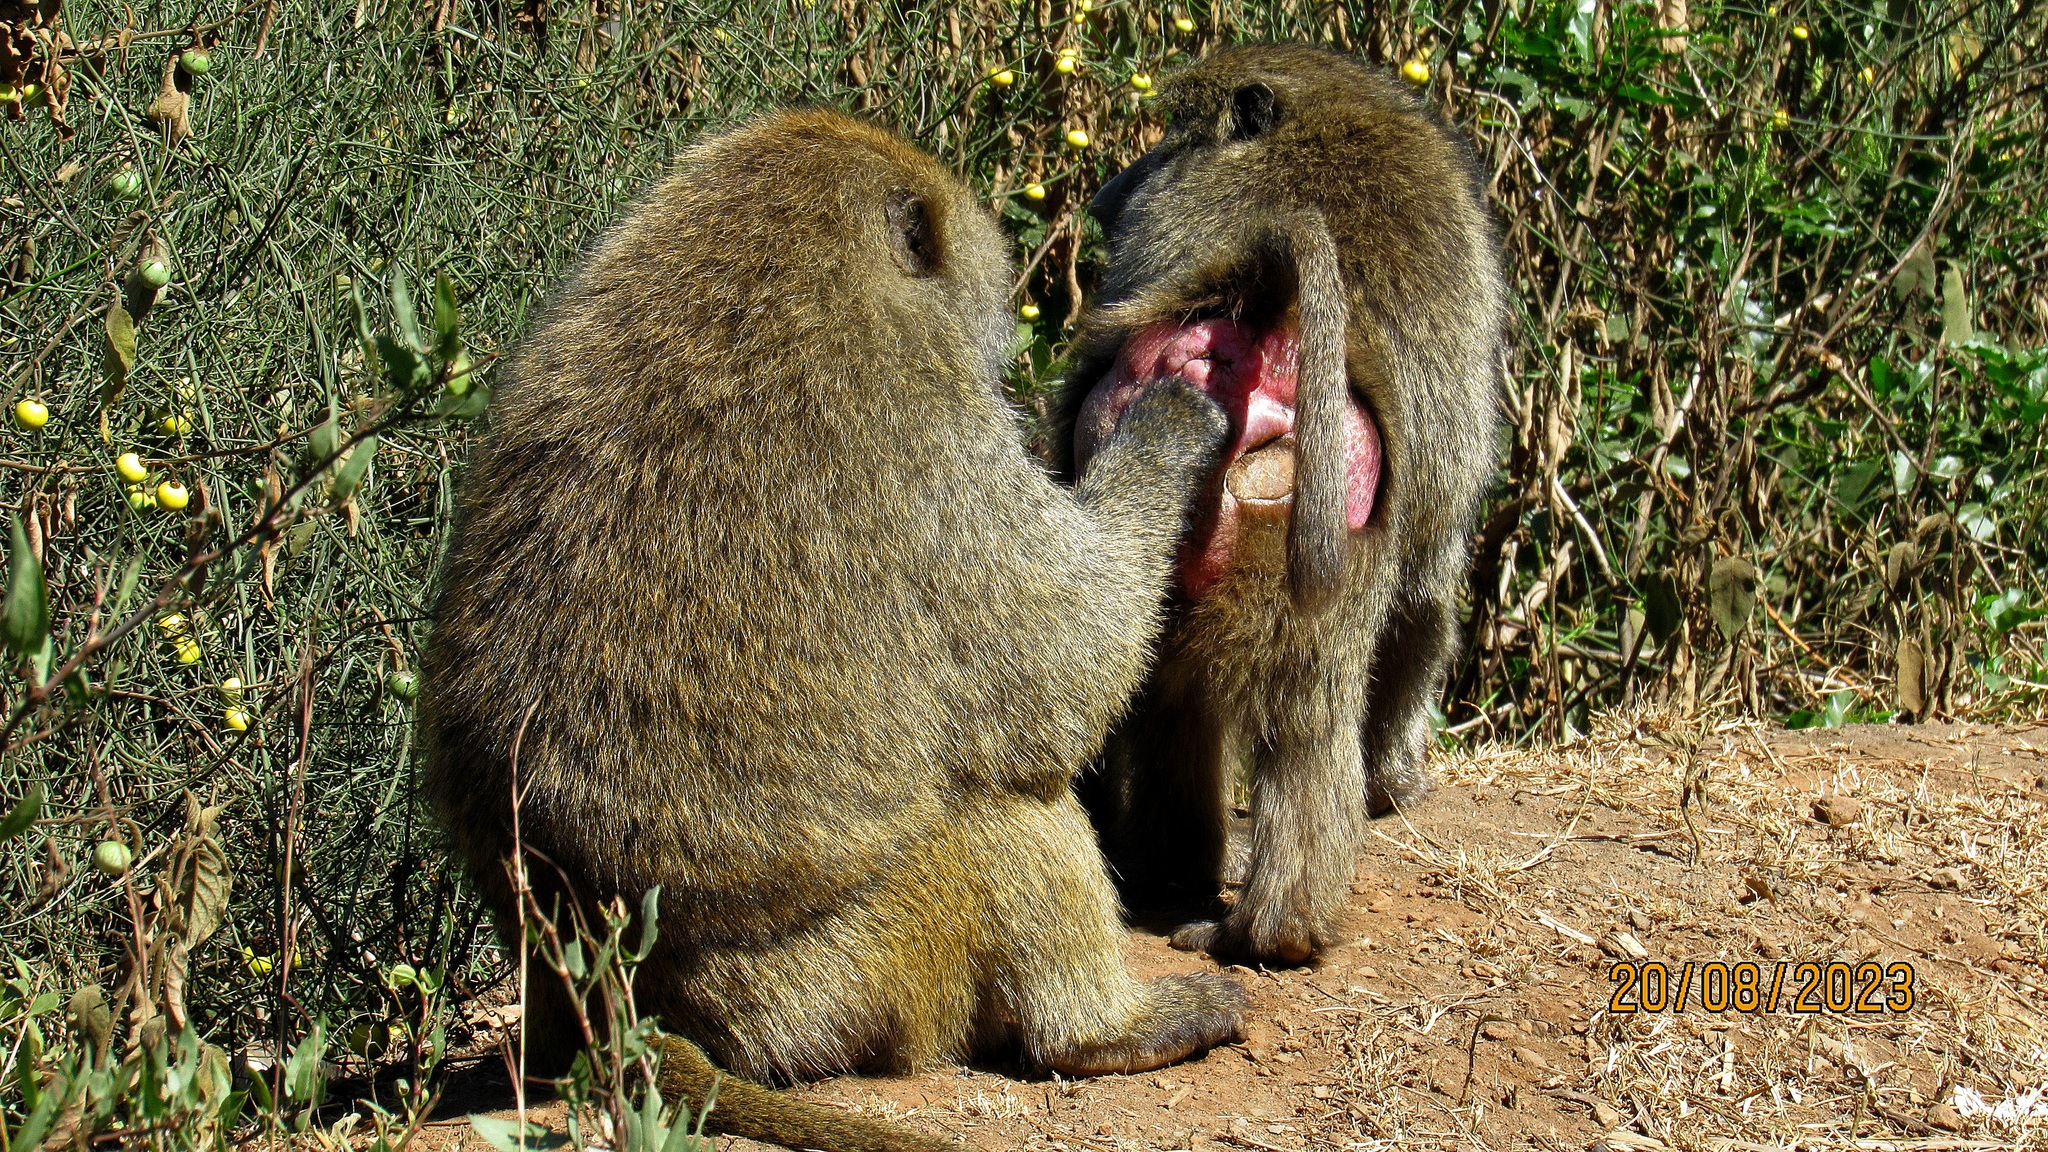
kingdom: Animalia
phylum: Chordata
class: Mammalia
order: Primates
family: Cercopithecidae
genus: Papio
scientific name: Papio anubis
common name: Olive baboon
